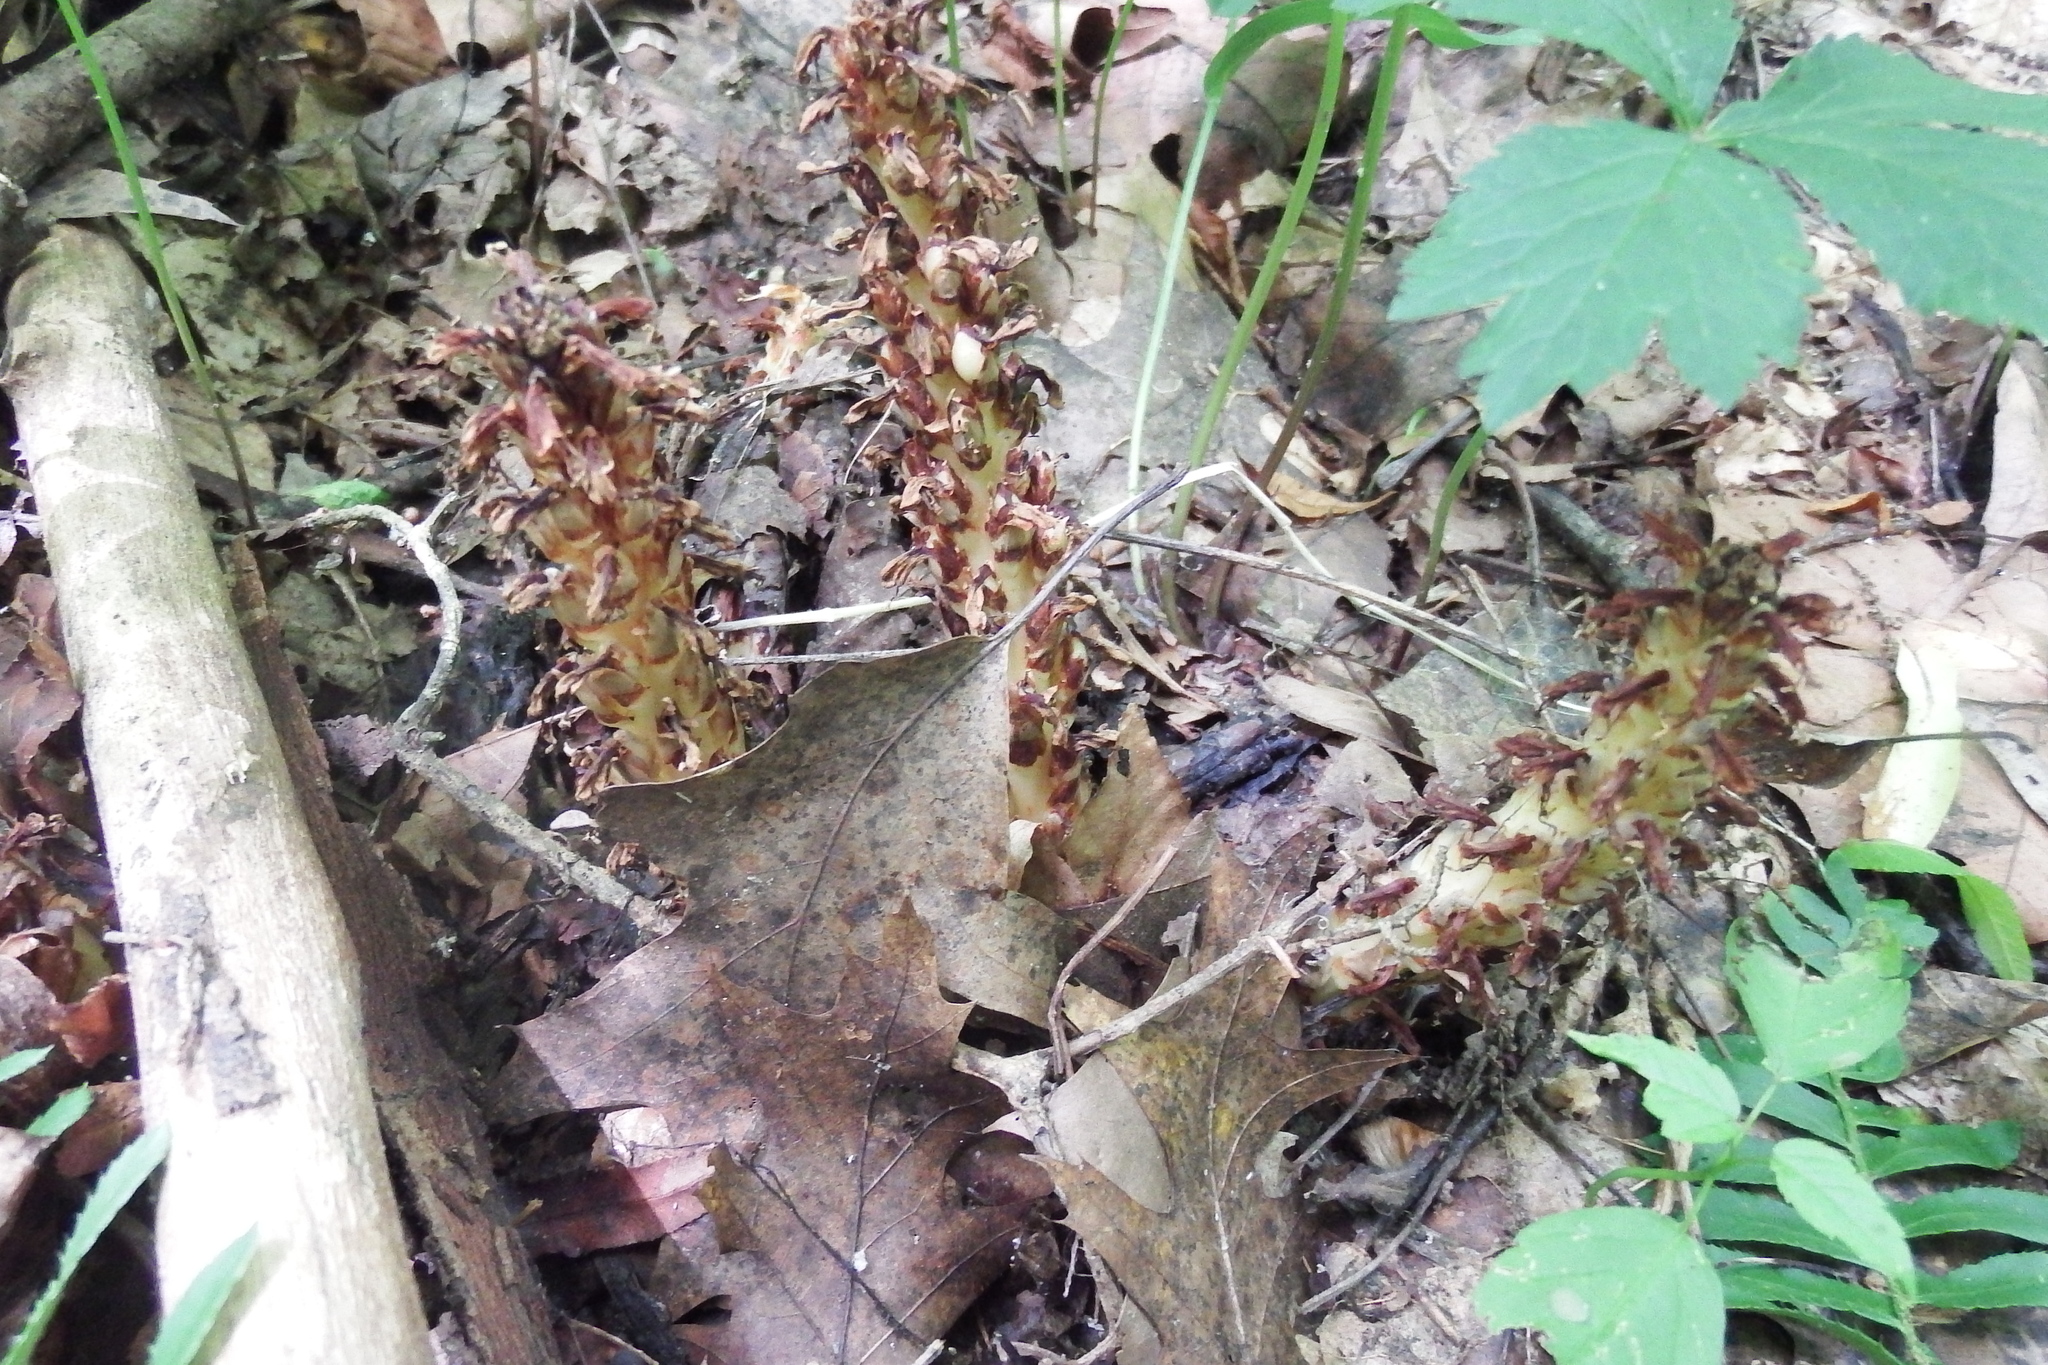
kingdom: Plantae
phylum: Tracheophyta
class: Magnoliopsida
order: Lamiales
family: Orobanchaceae
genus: Conopholis
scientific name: Conopholis americana
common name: American cancer-root
